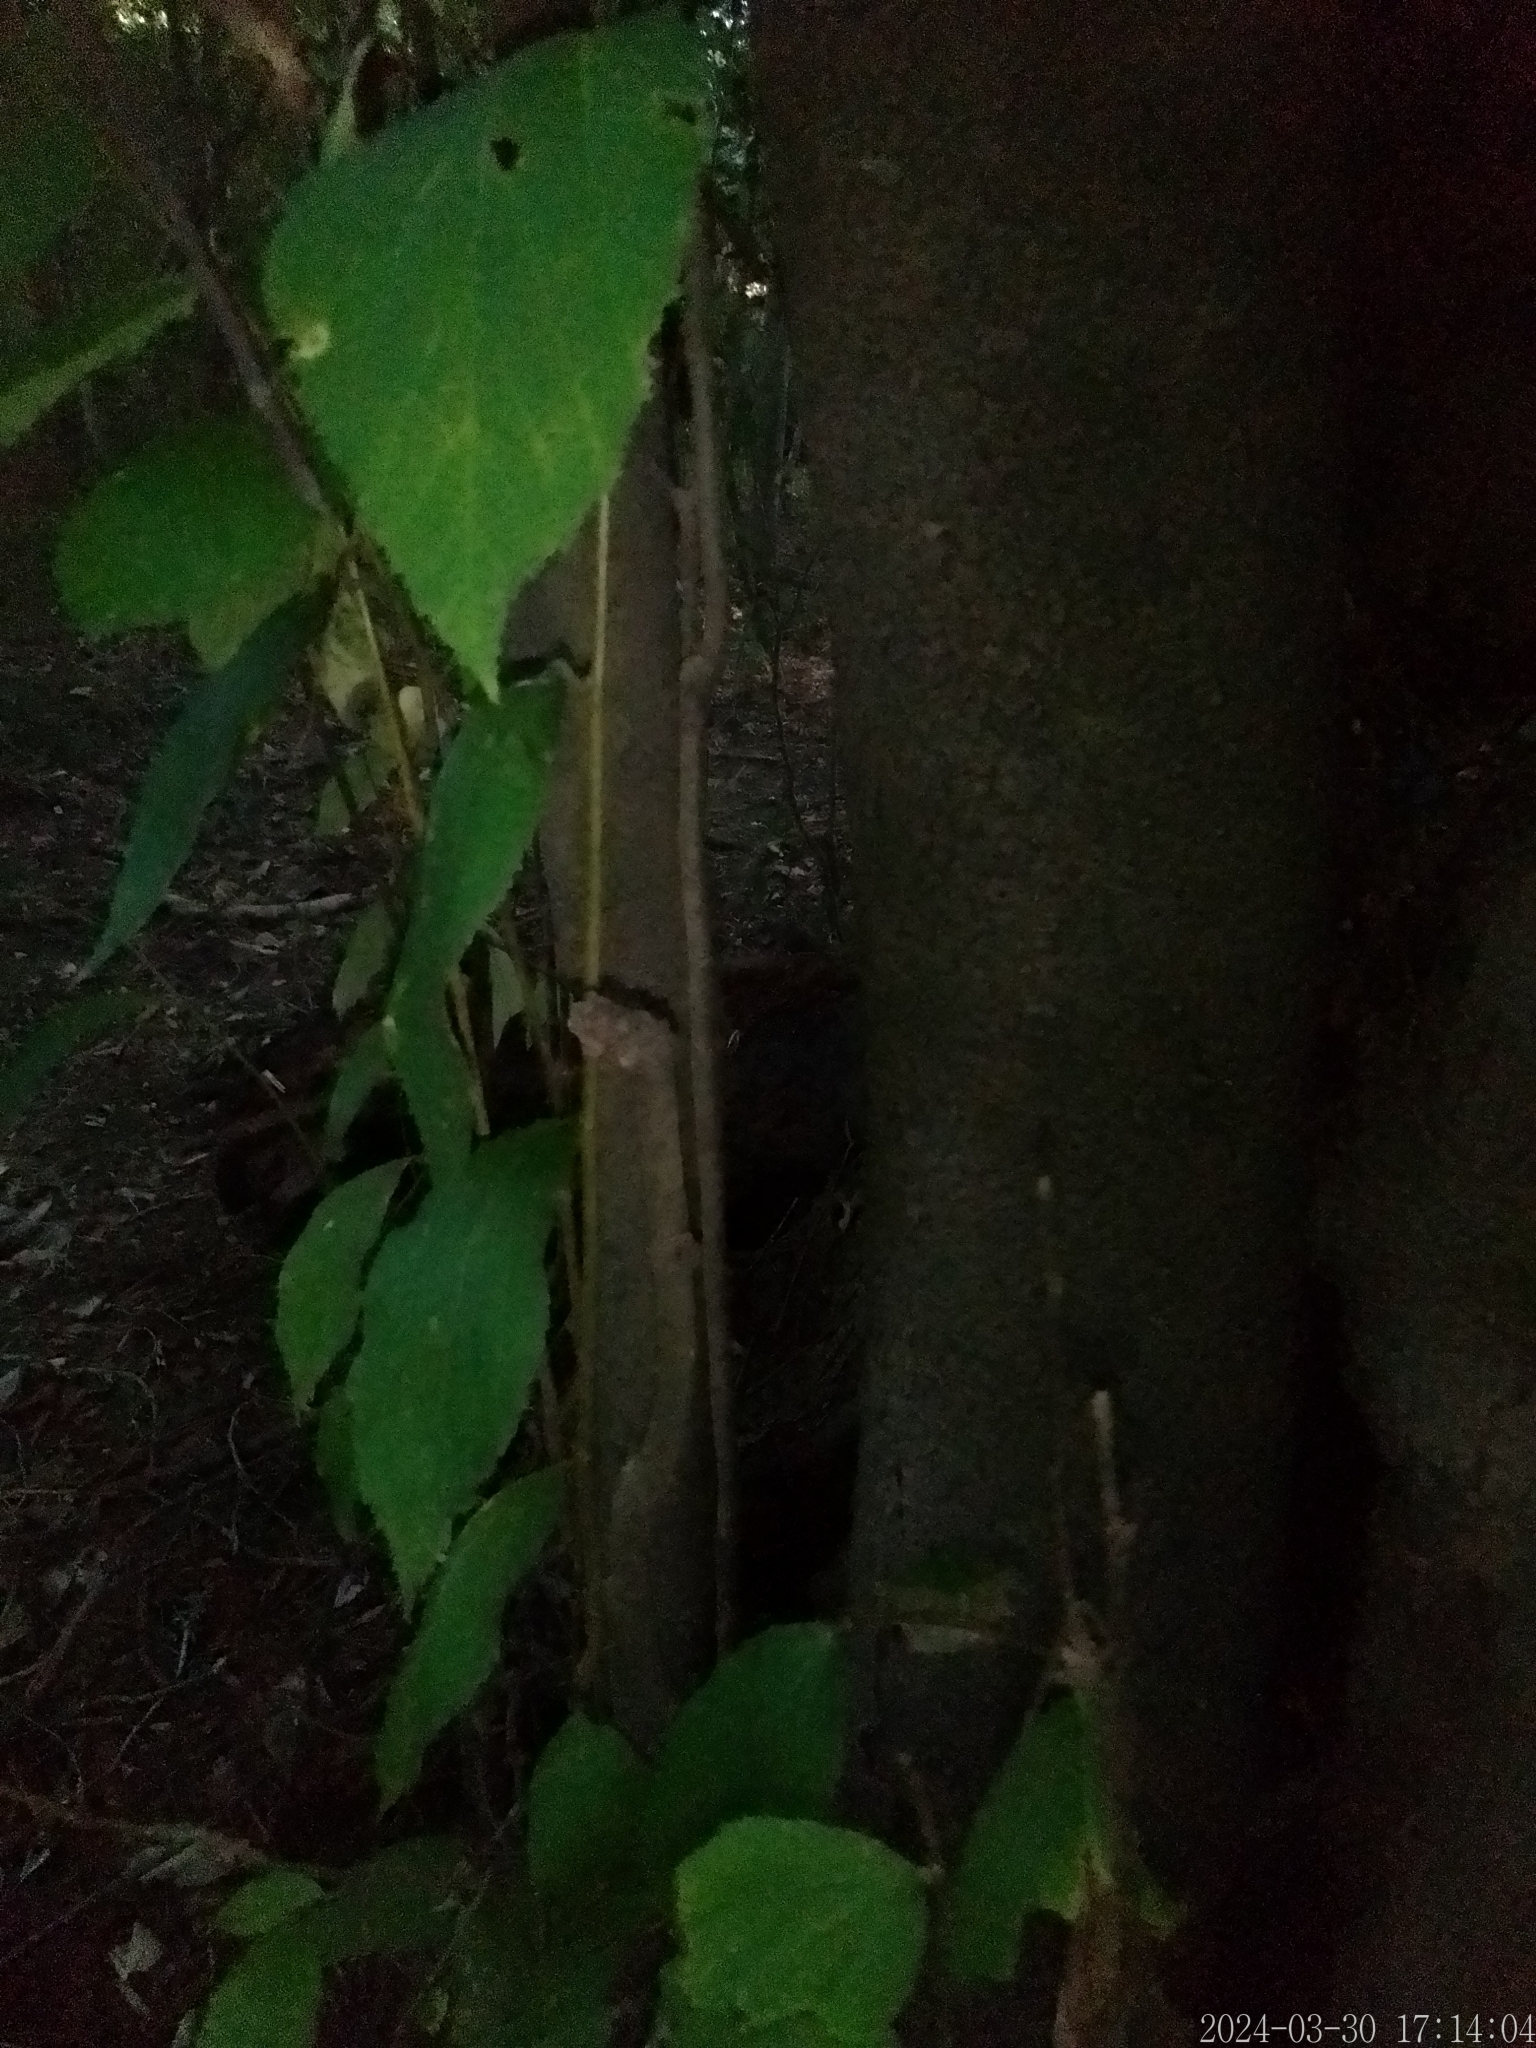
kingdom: Plantae
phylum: Tracheophyta
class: Magnoliopsida
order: Malvales
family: Malvaceae
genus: Luehea
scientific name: Luehea divaricata
